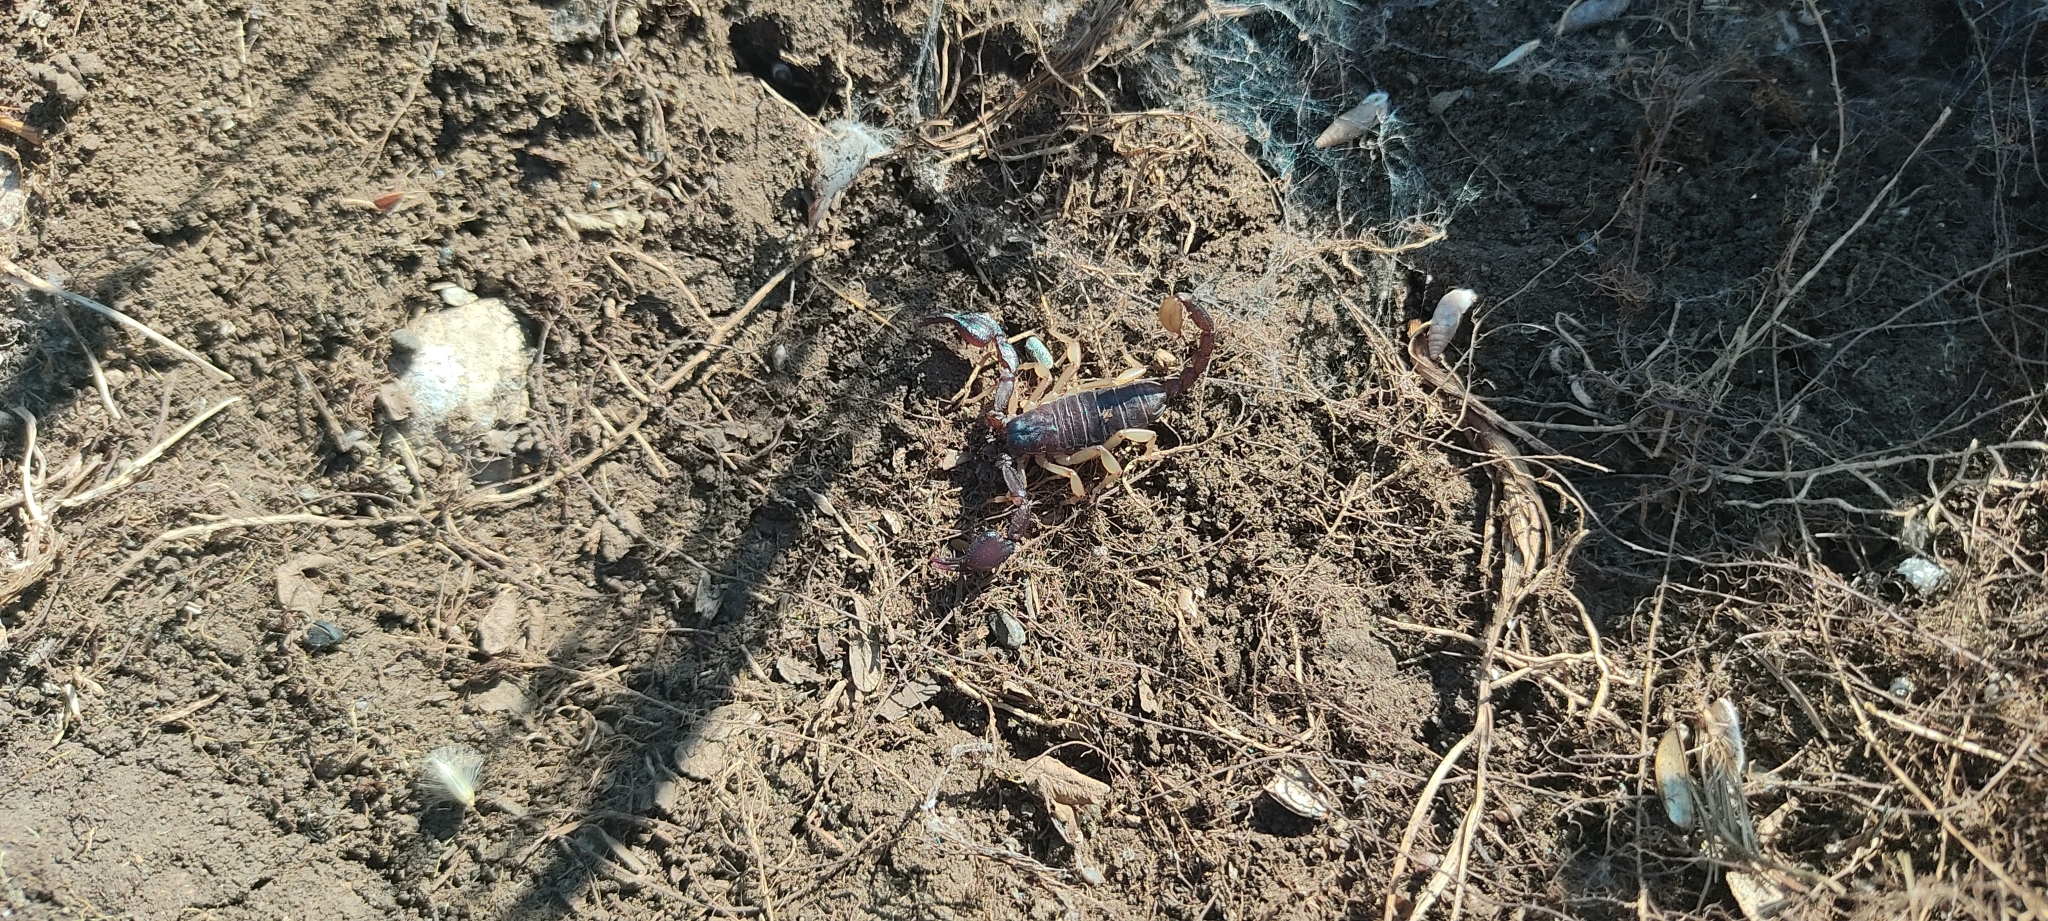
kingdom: Animalia
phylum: Arthropoda
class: Arachnida
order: Scorpiones
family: Euscorpiidae
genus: Euscorpius
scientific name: Euscorpius niciensis
